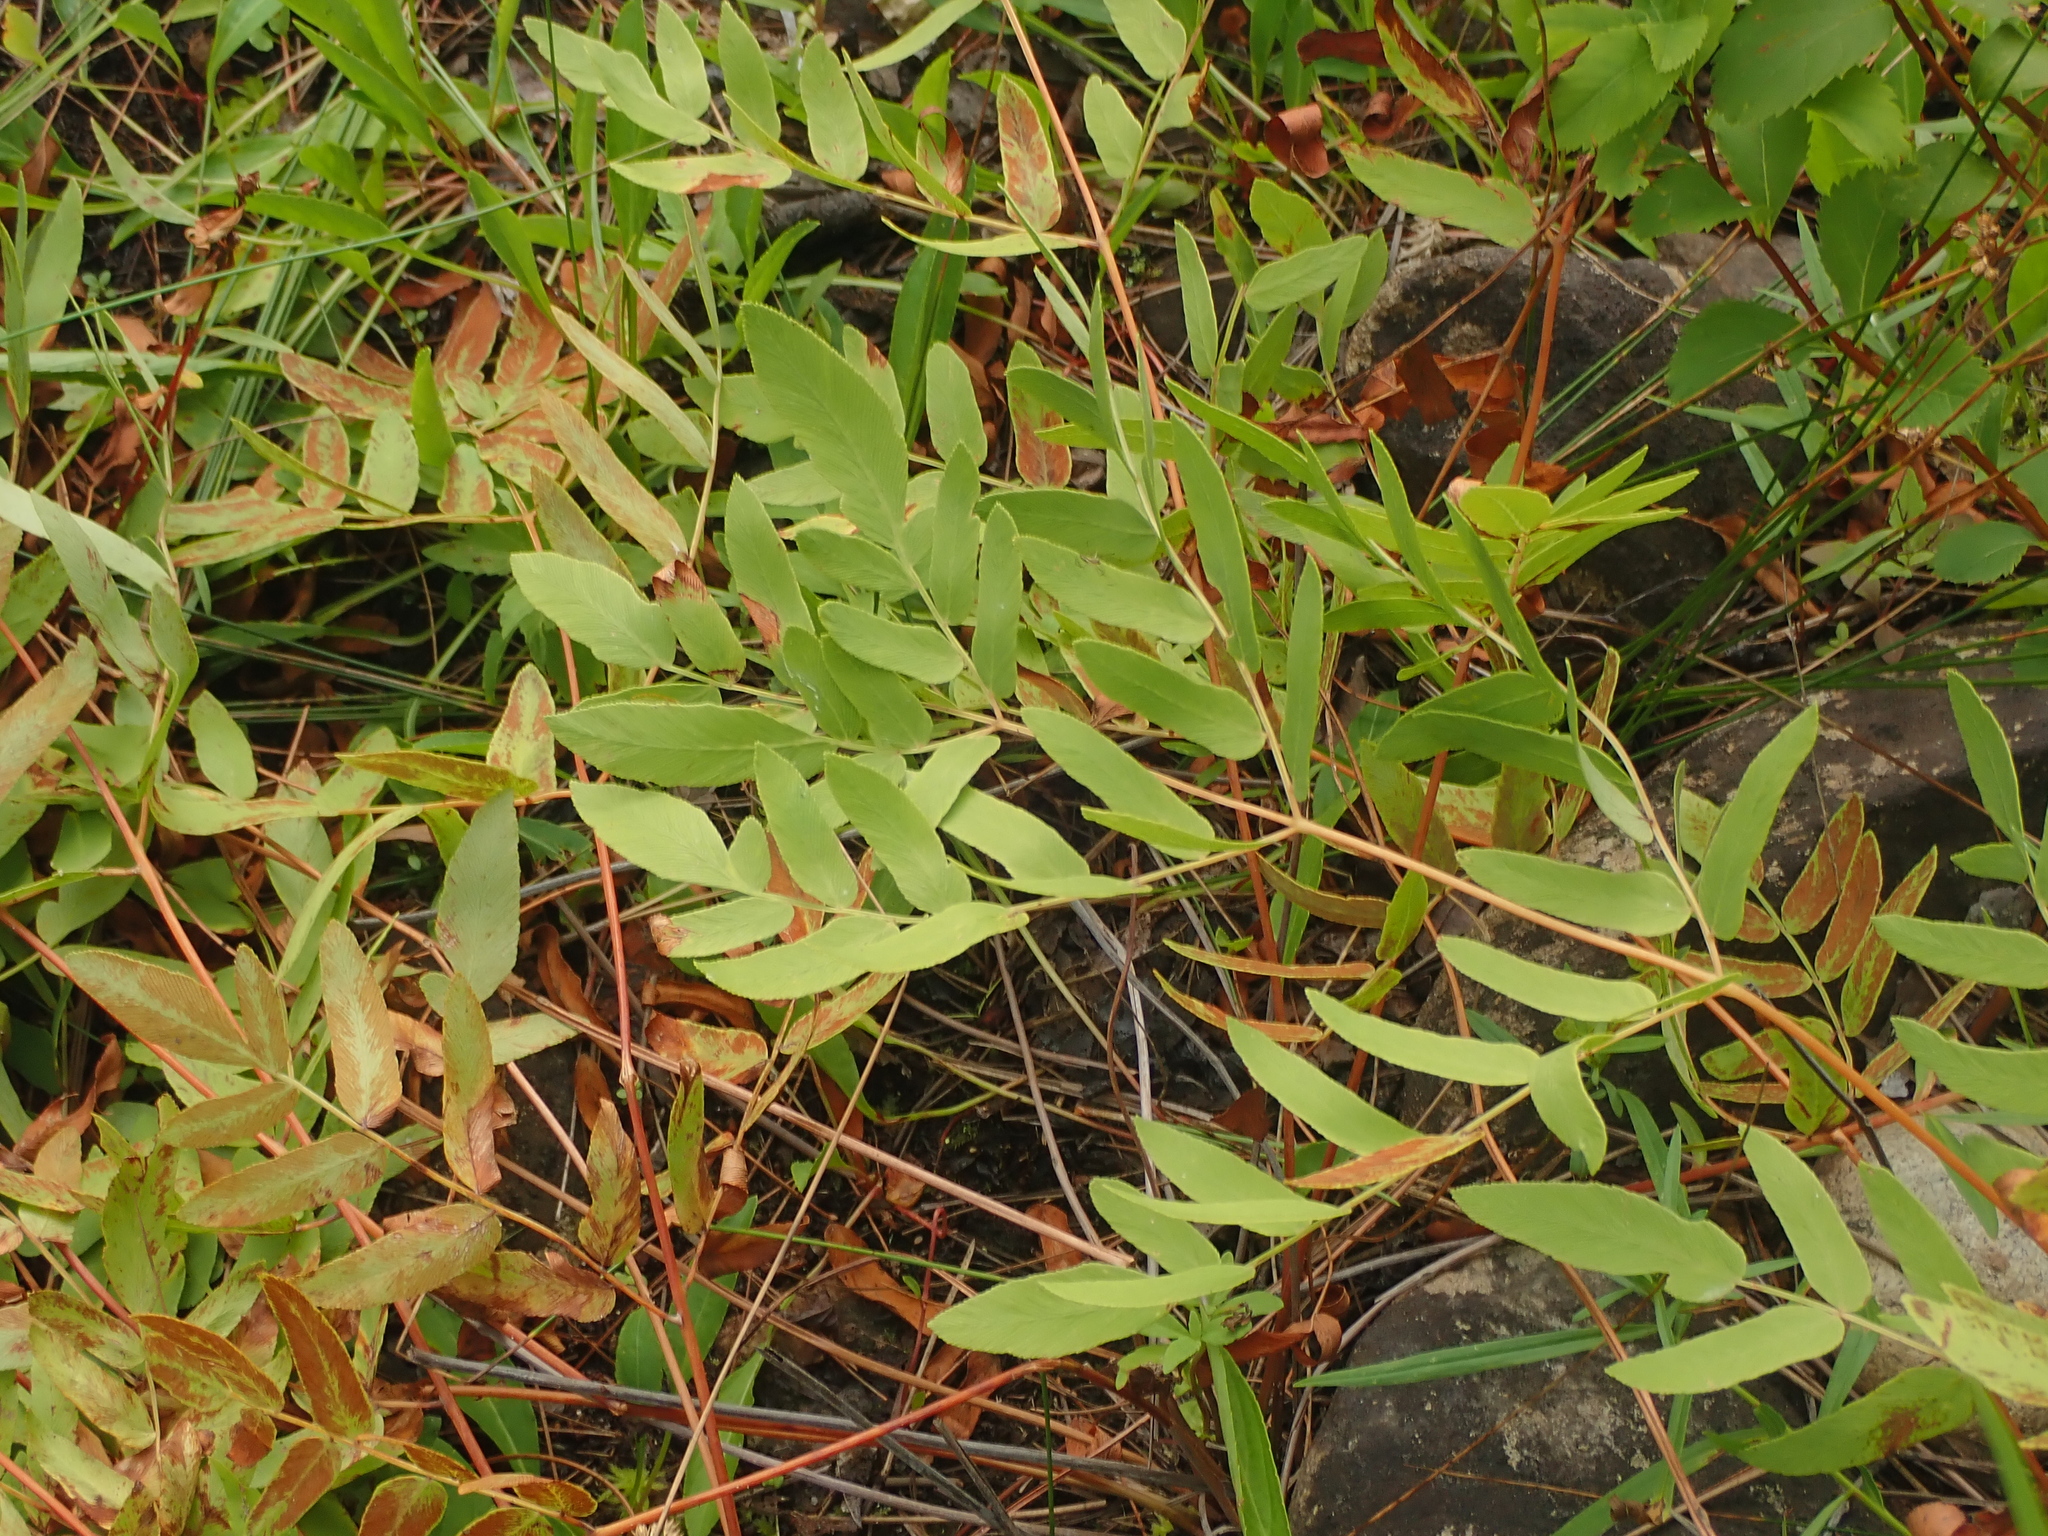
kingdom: Plantae
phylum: Tracheophyta
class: Polypodiopsida
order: Osmundales
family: Osmundaceae
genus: Osmunda
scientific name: Osmunda spectabilis
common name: American royal fern
